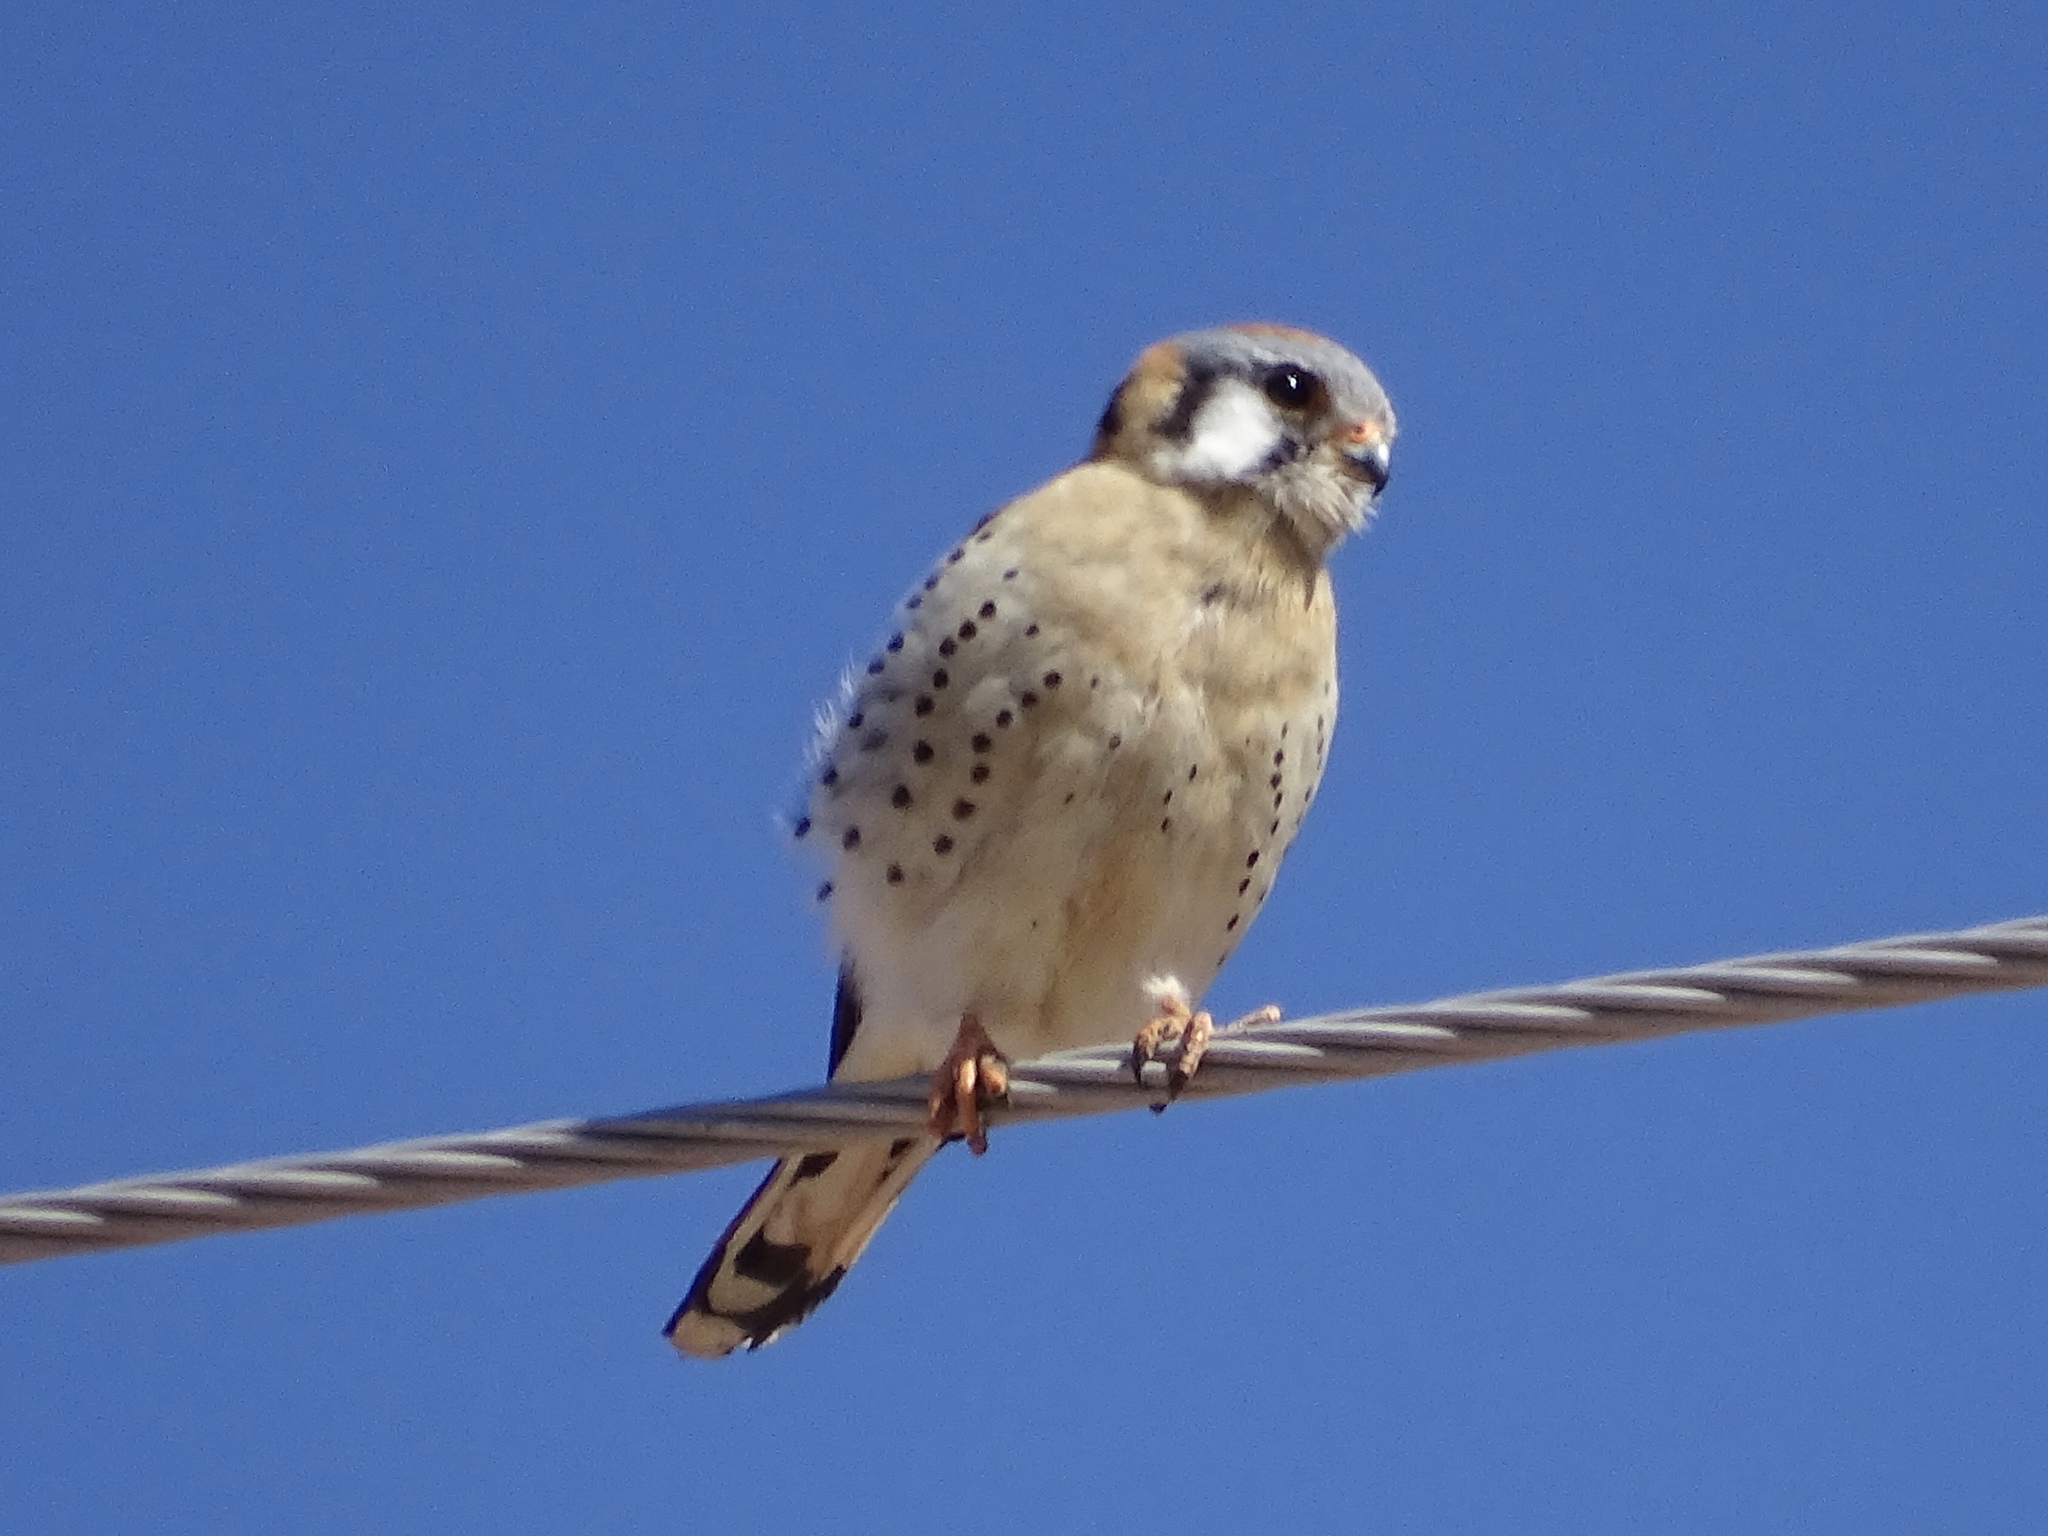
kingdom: Animalia
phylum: Chordata
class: Aves
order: Falconiformes
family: Falconidae
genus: Falco
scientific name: Falco sparverius
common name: American kestrel
